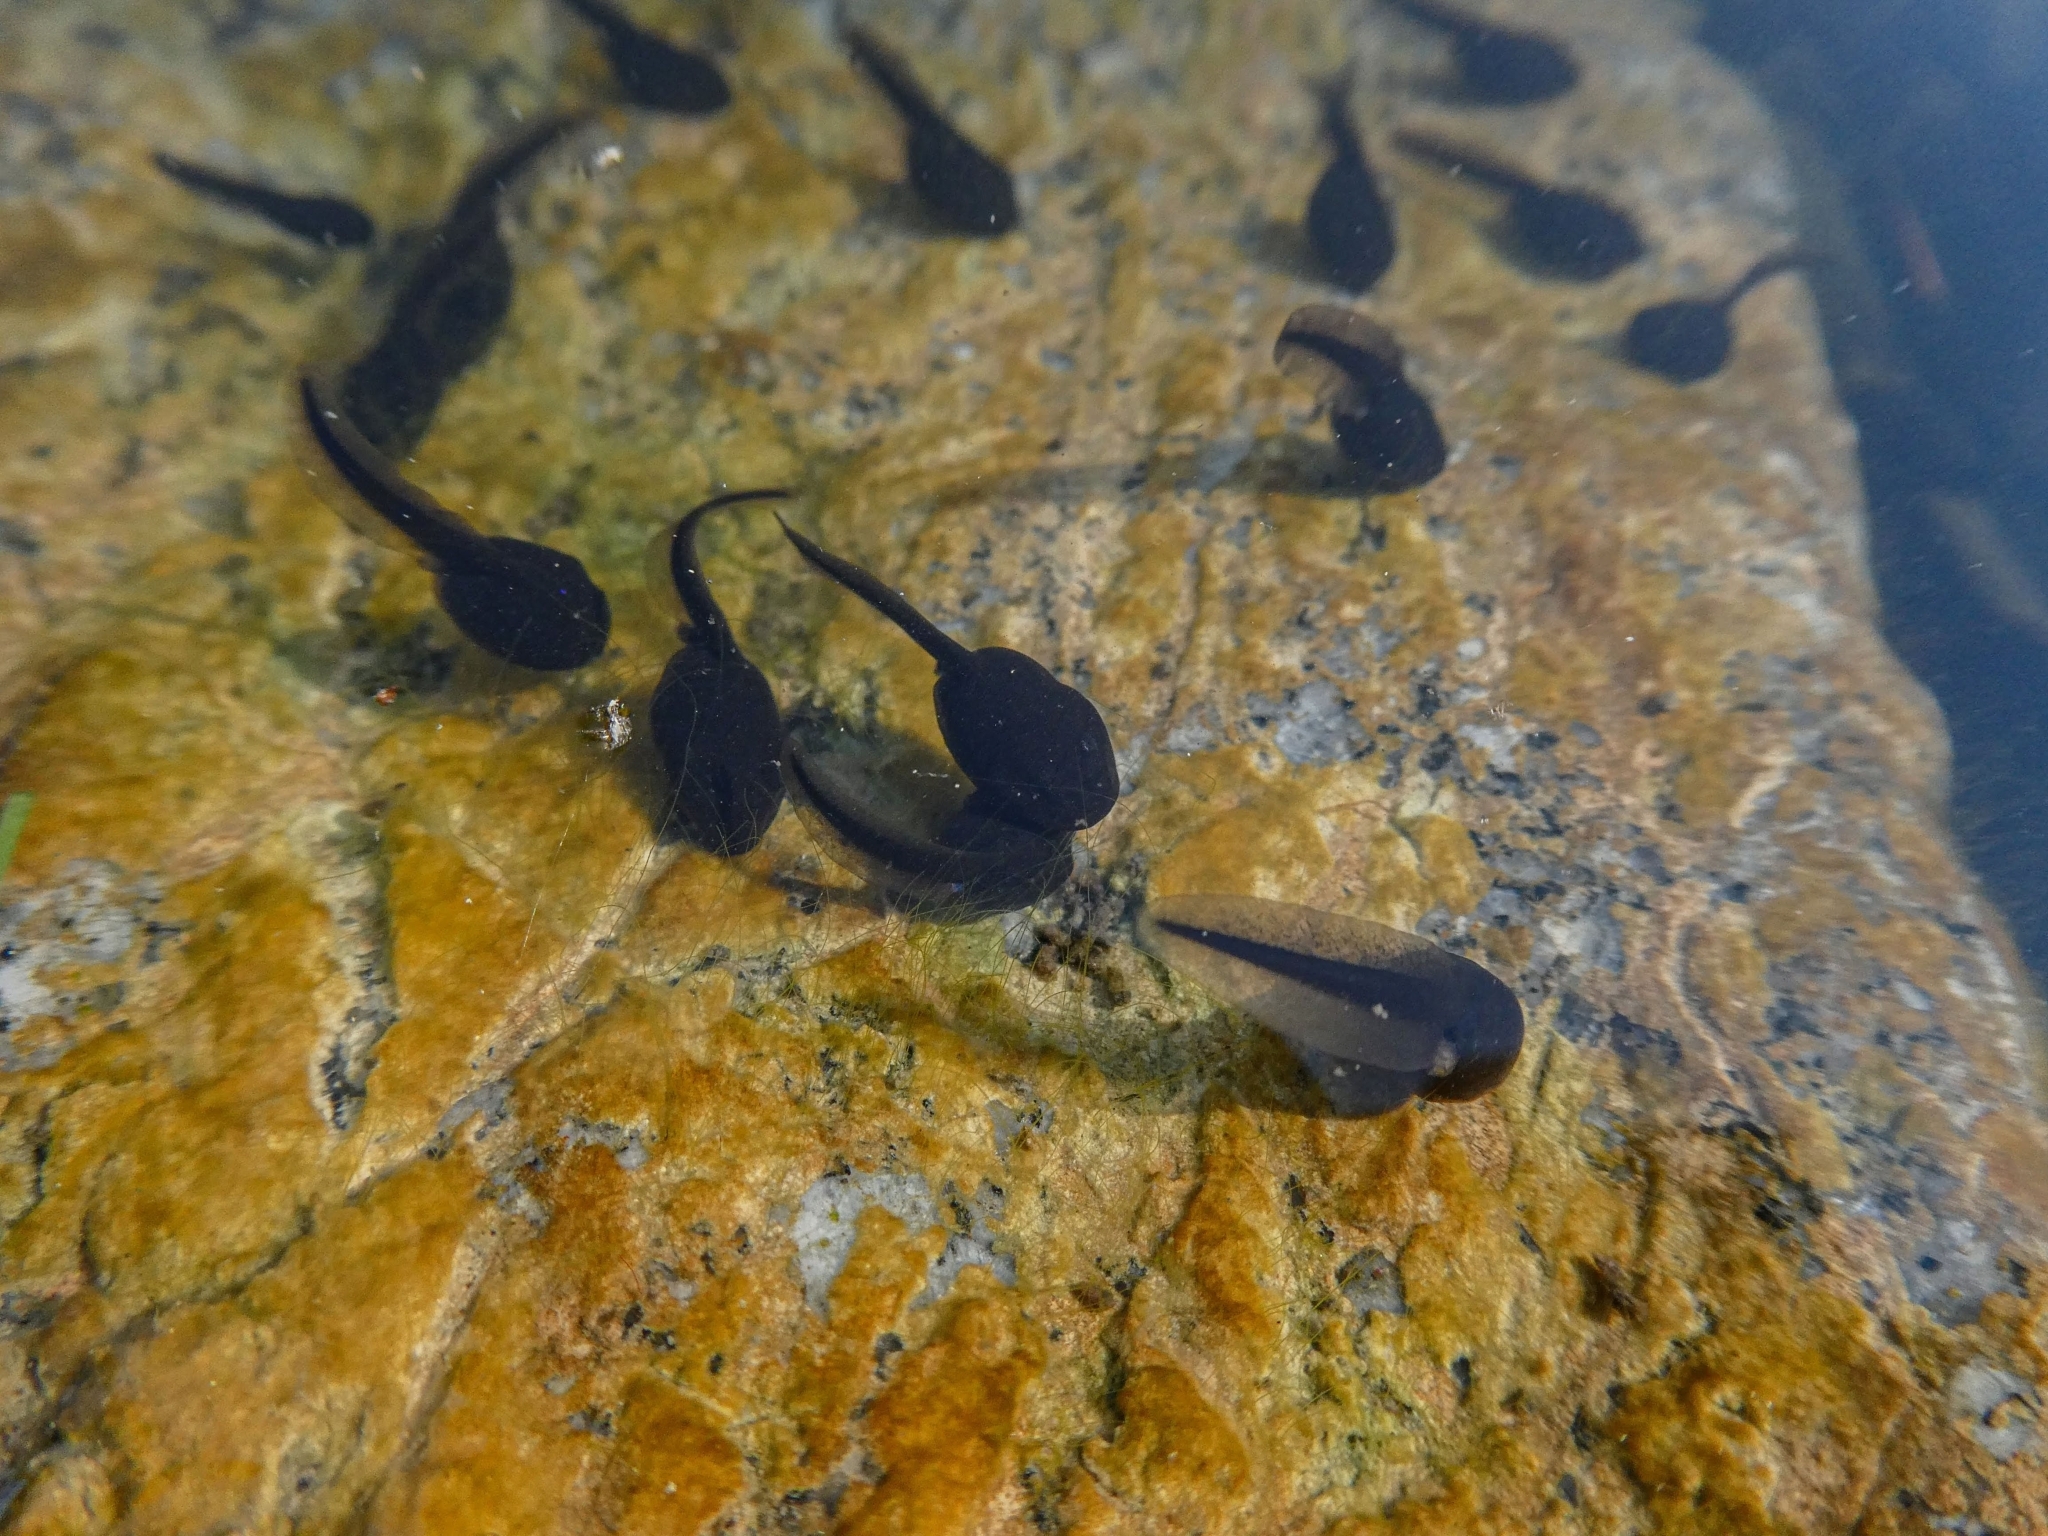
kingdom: Animalia
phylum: Chordata
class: Amphibia
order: Anura
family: Bufonidae
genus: Bufo
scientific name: Bufo bufo
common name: Common toad
